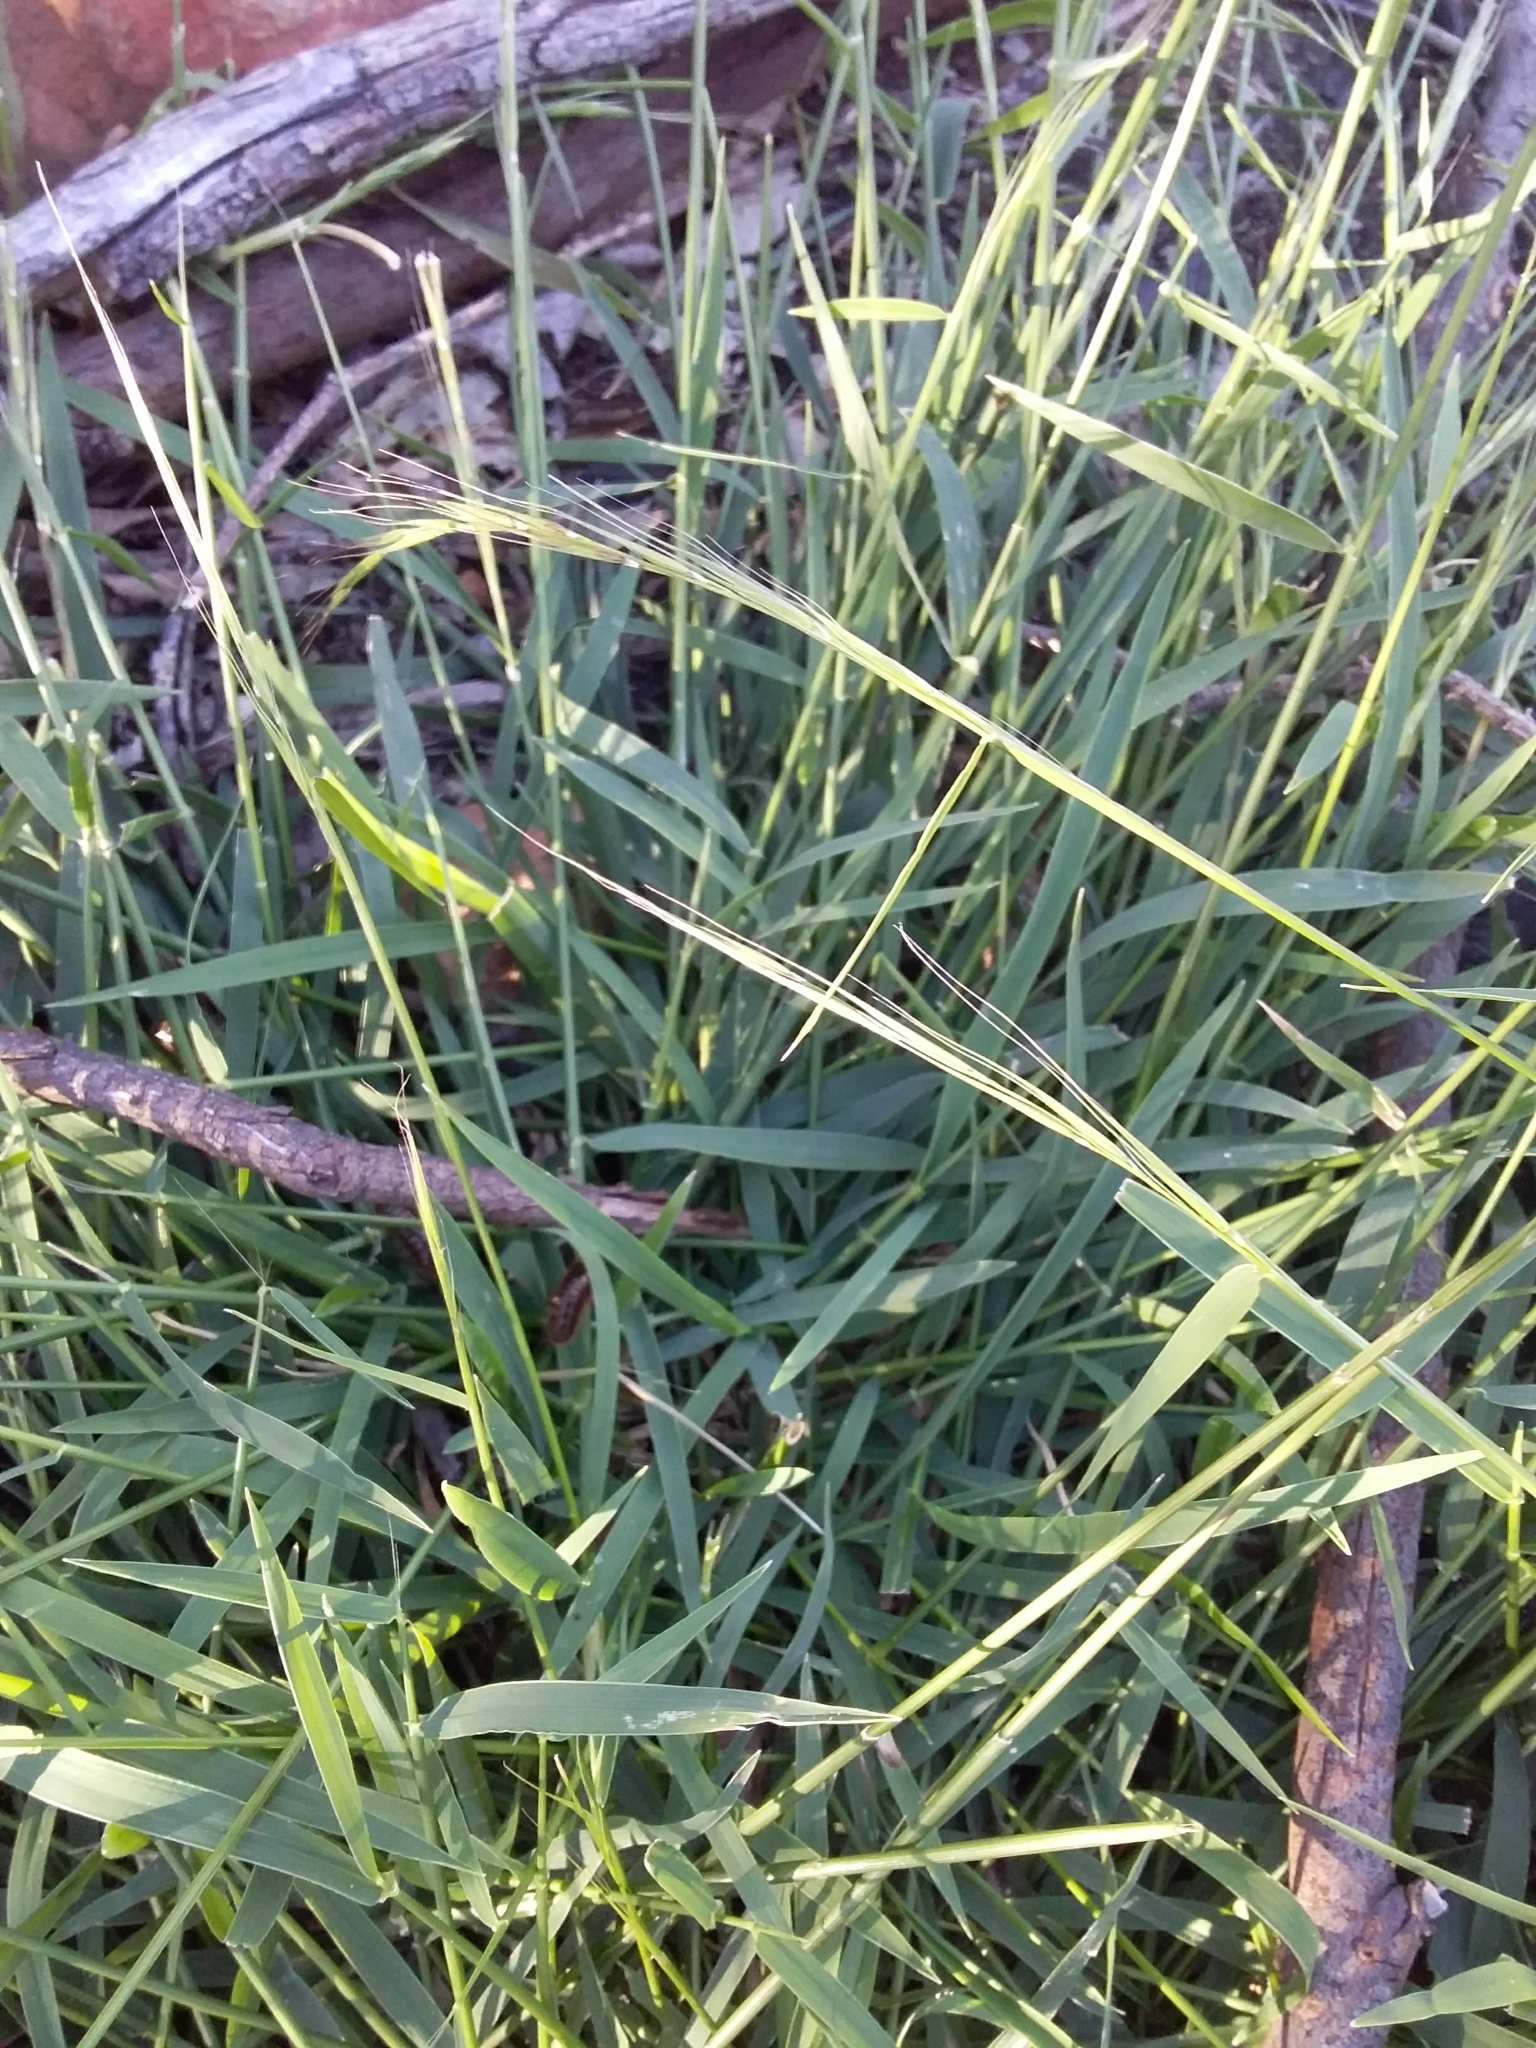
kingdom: Plantae
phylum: Tracheophyta
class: Liliopsida
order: Poales
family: Poaceae
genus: Microlaena
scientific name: Microlaena stipoides
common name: Meadow ricegrass
